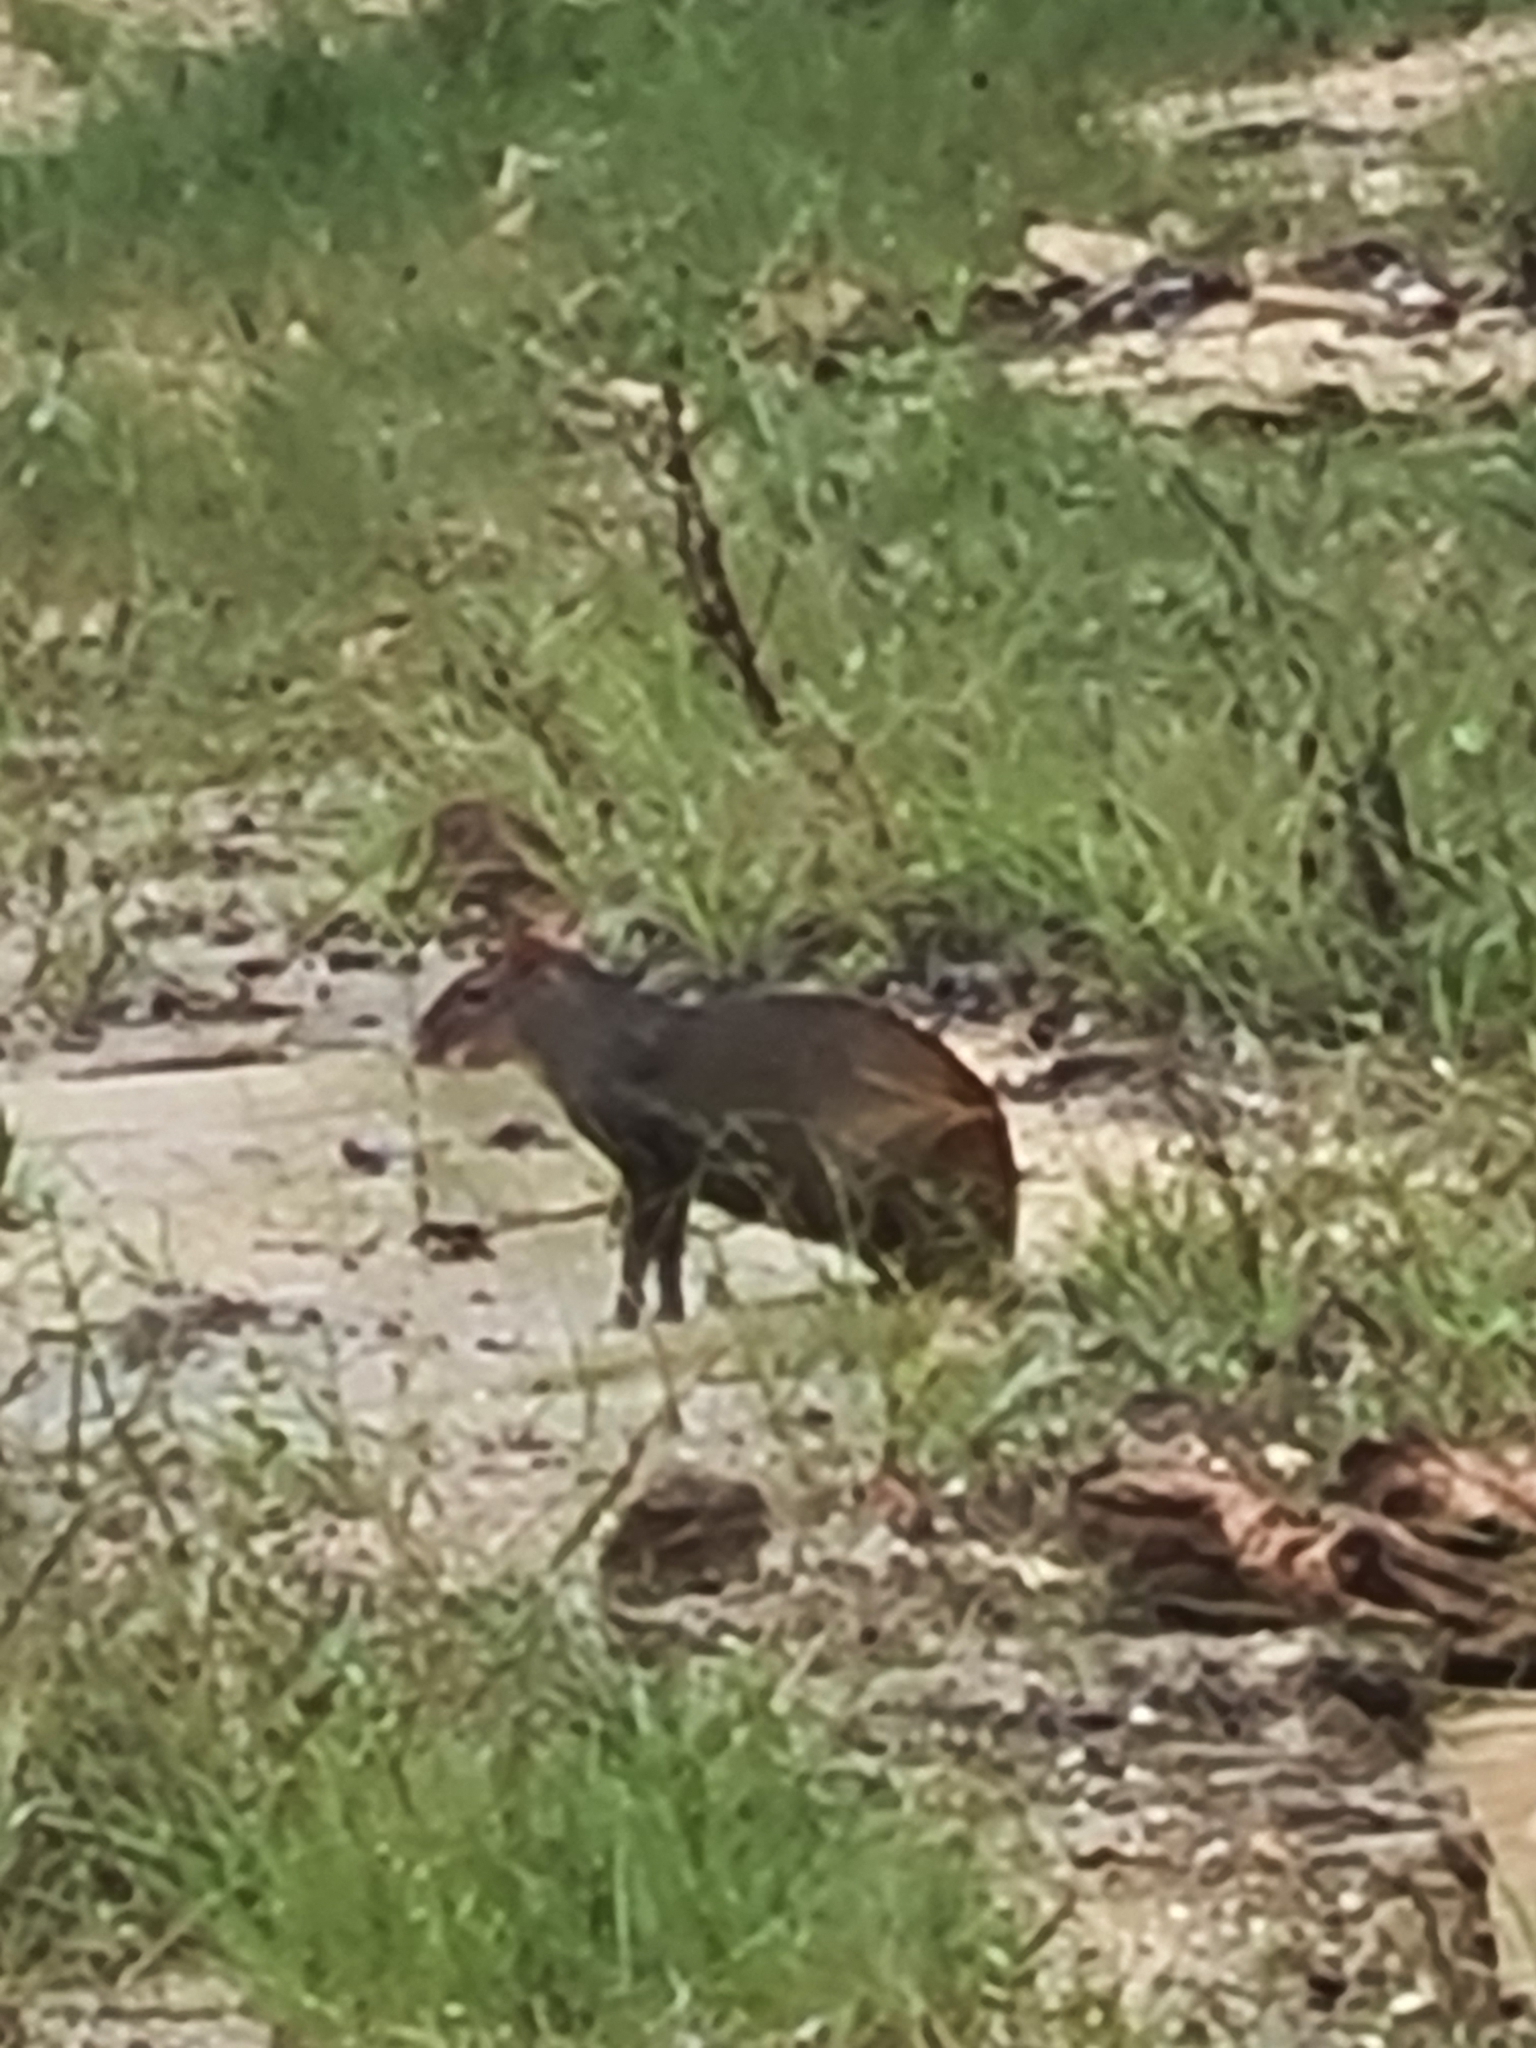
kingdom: Animalia
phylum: Chordata
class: Mammalia
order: Rodentia
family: Dasyproctidae
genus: Dasyprocta
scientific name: Dasyprocta leporina
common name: Red-rumped agouti
